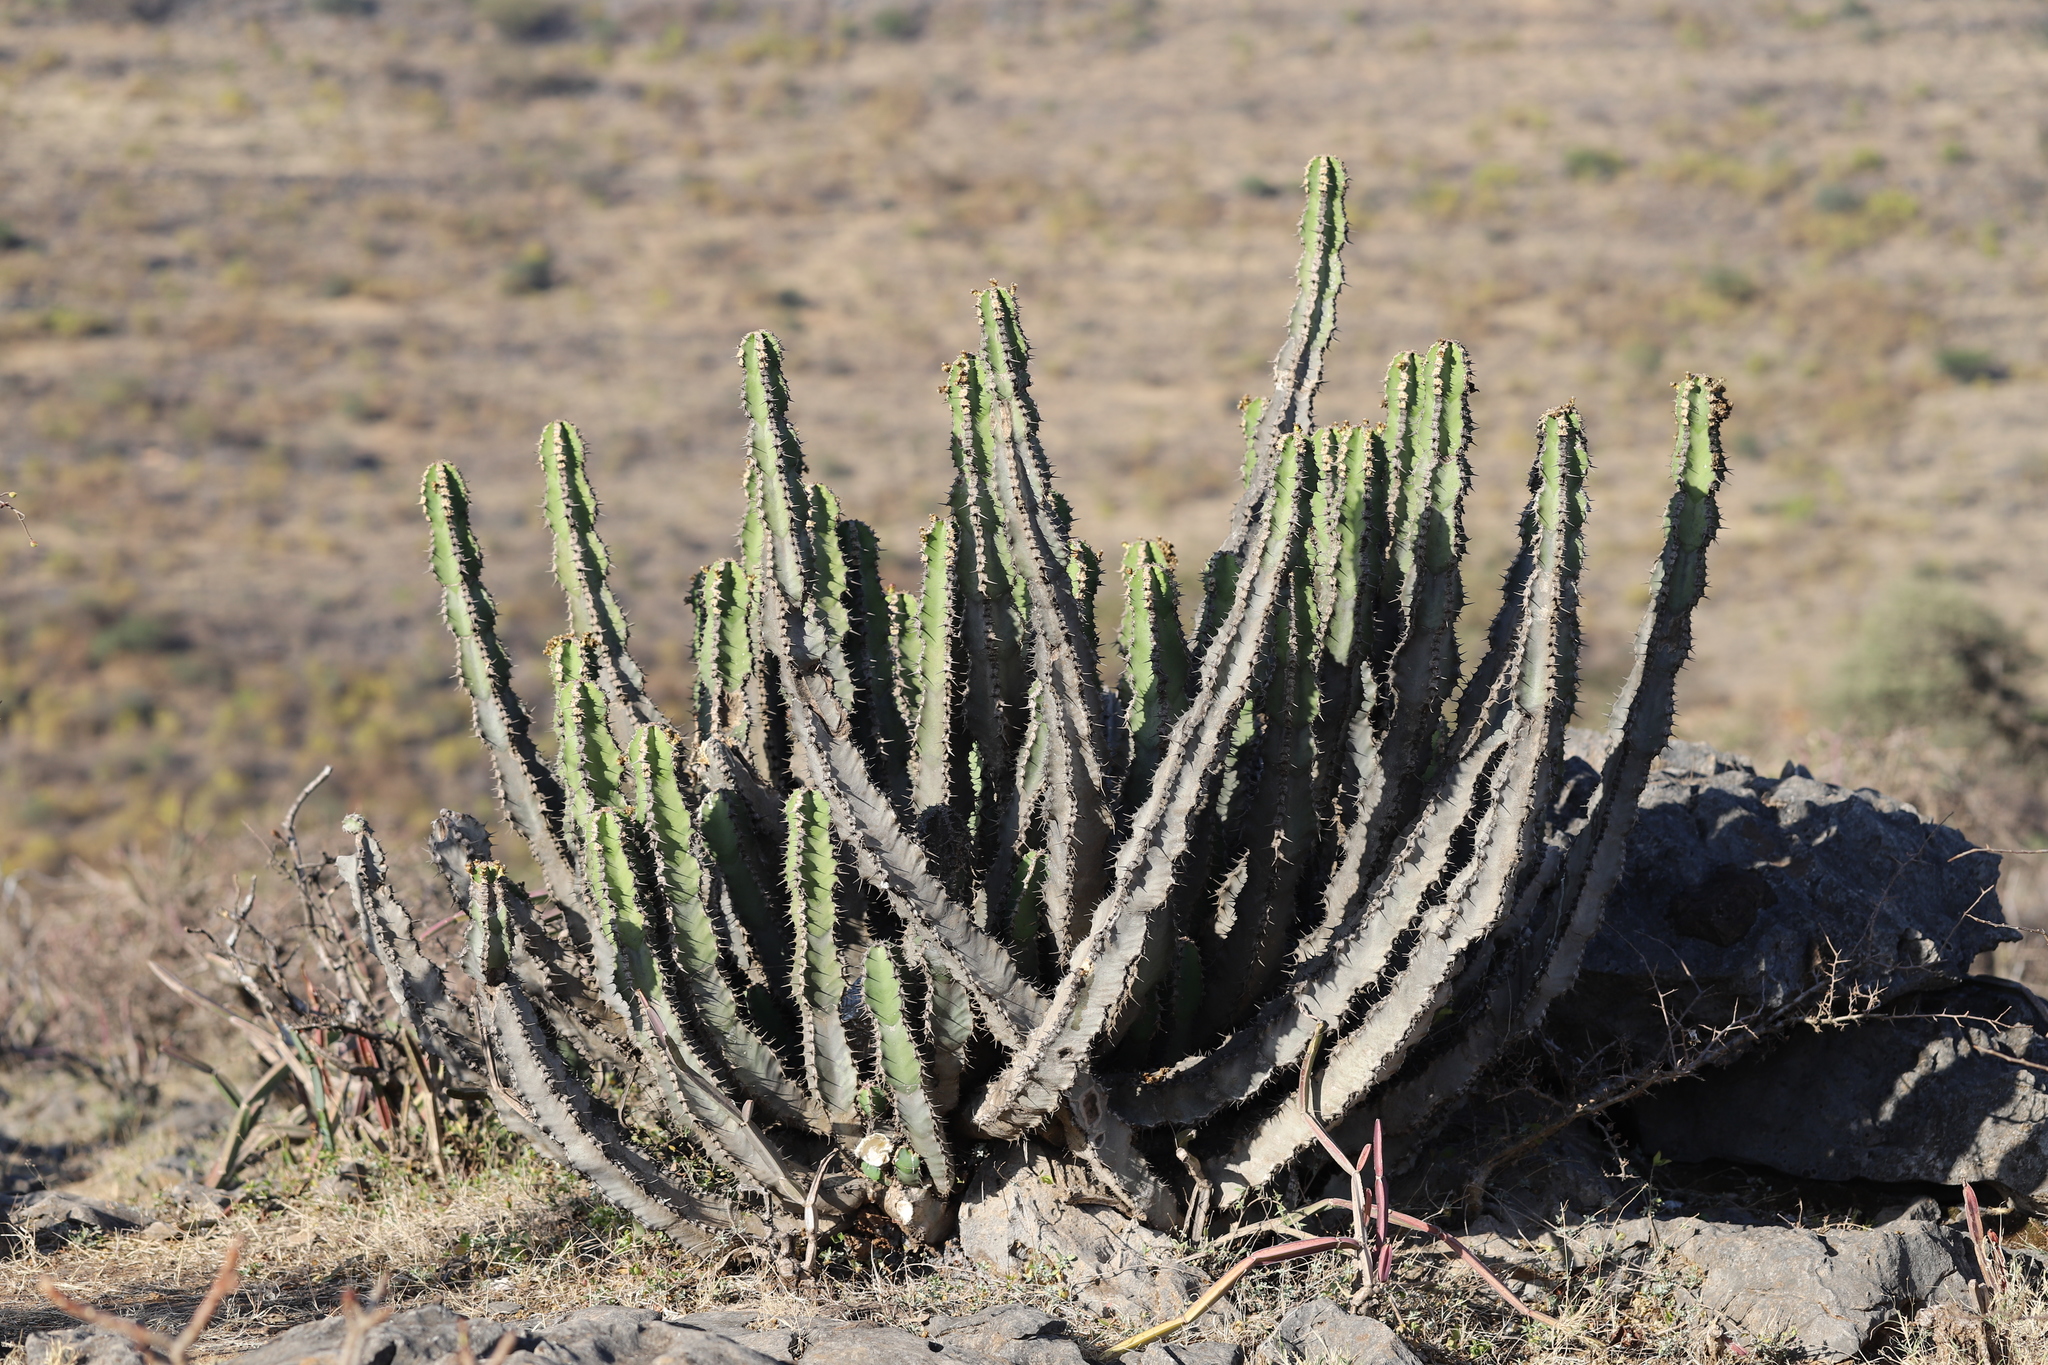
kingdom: Plantae
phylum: Tracheophyta
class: Magnoliopsida
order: Malpighiales
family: Euphorbiaceae
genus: Euphorbia
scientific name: Euphorbia momccoyae
